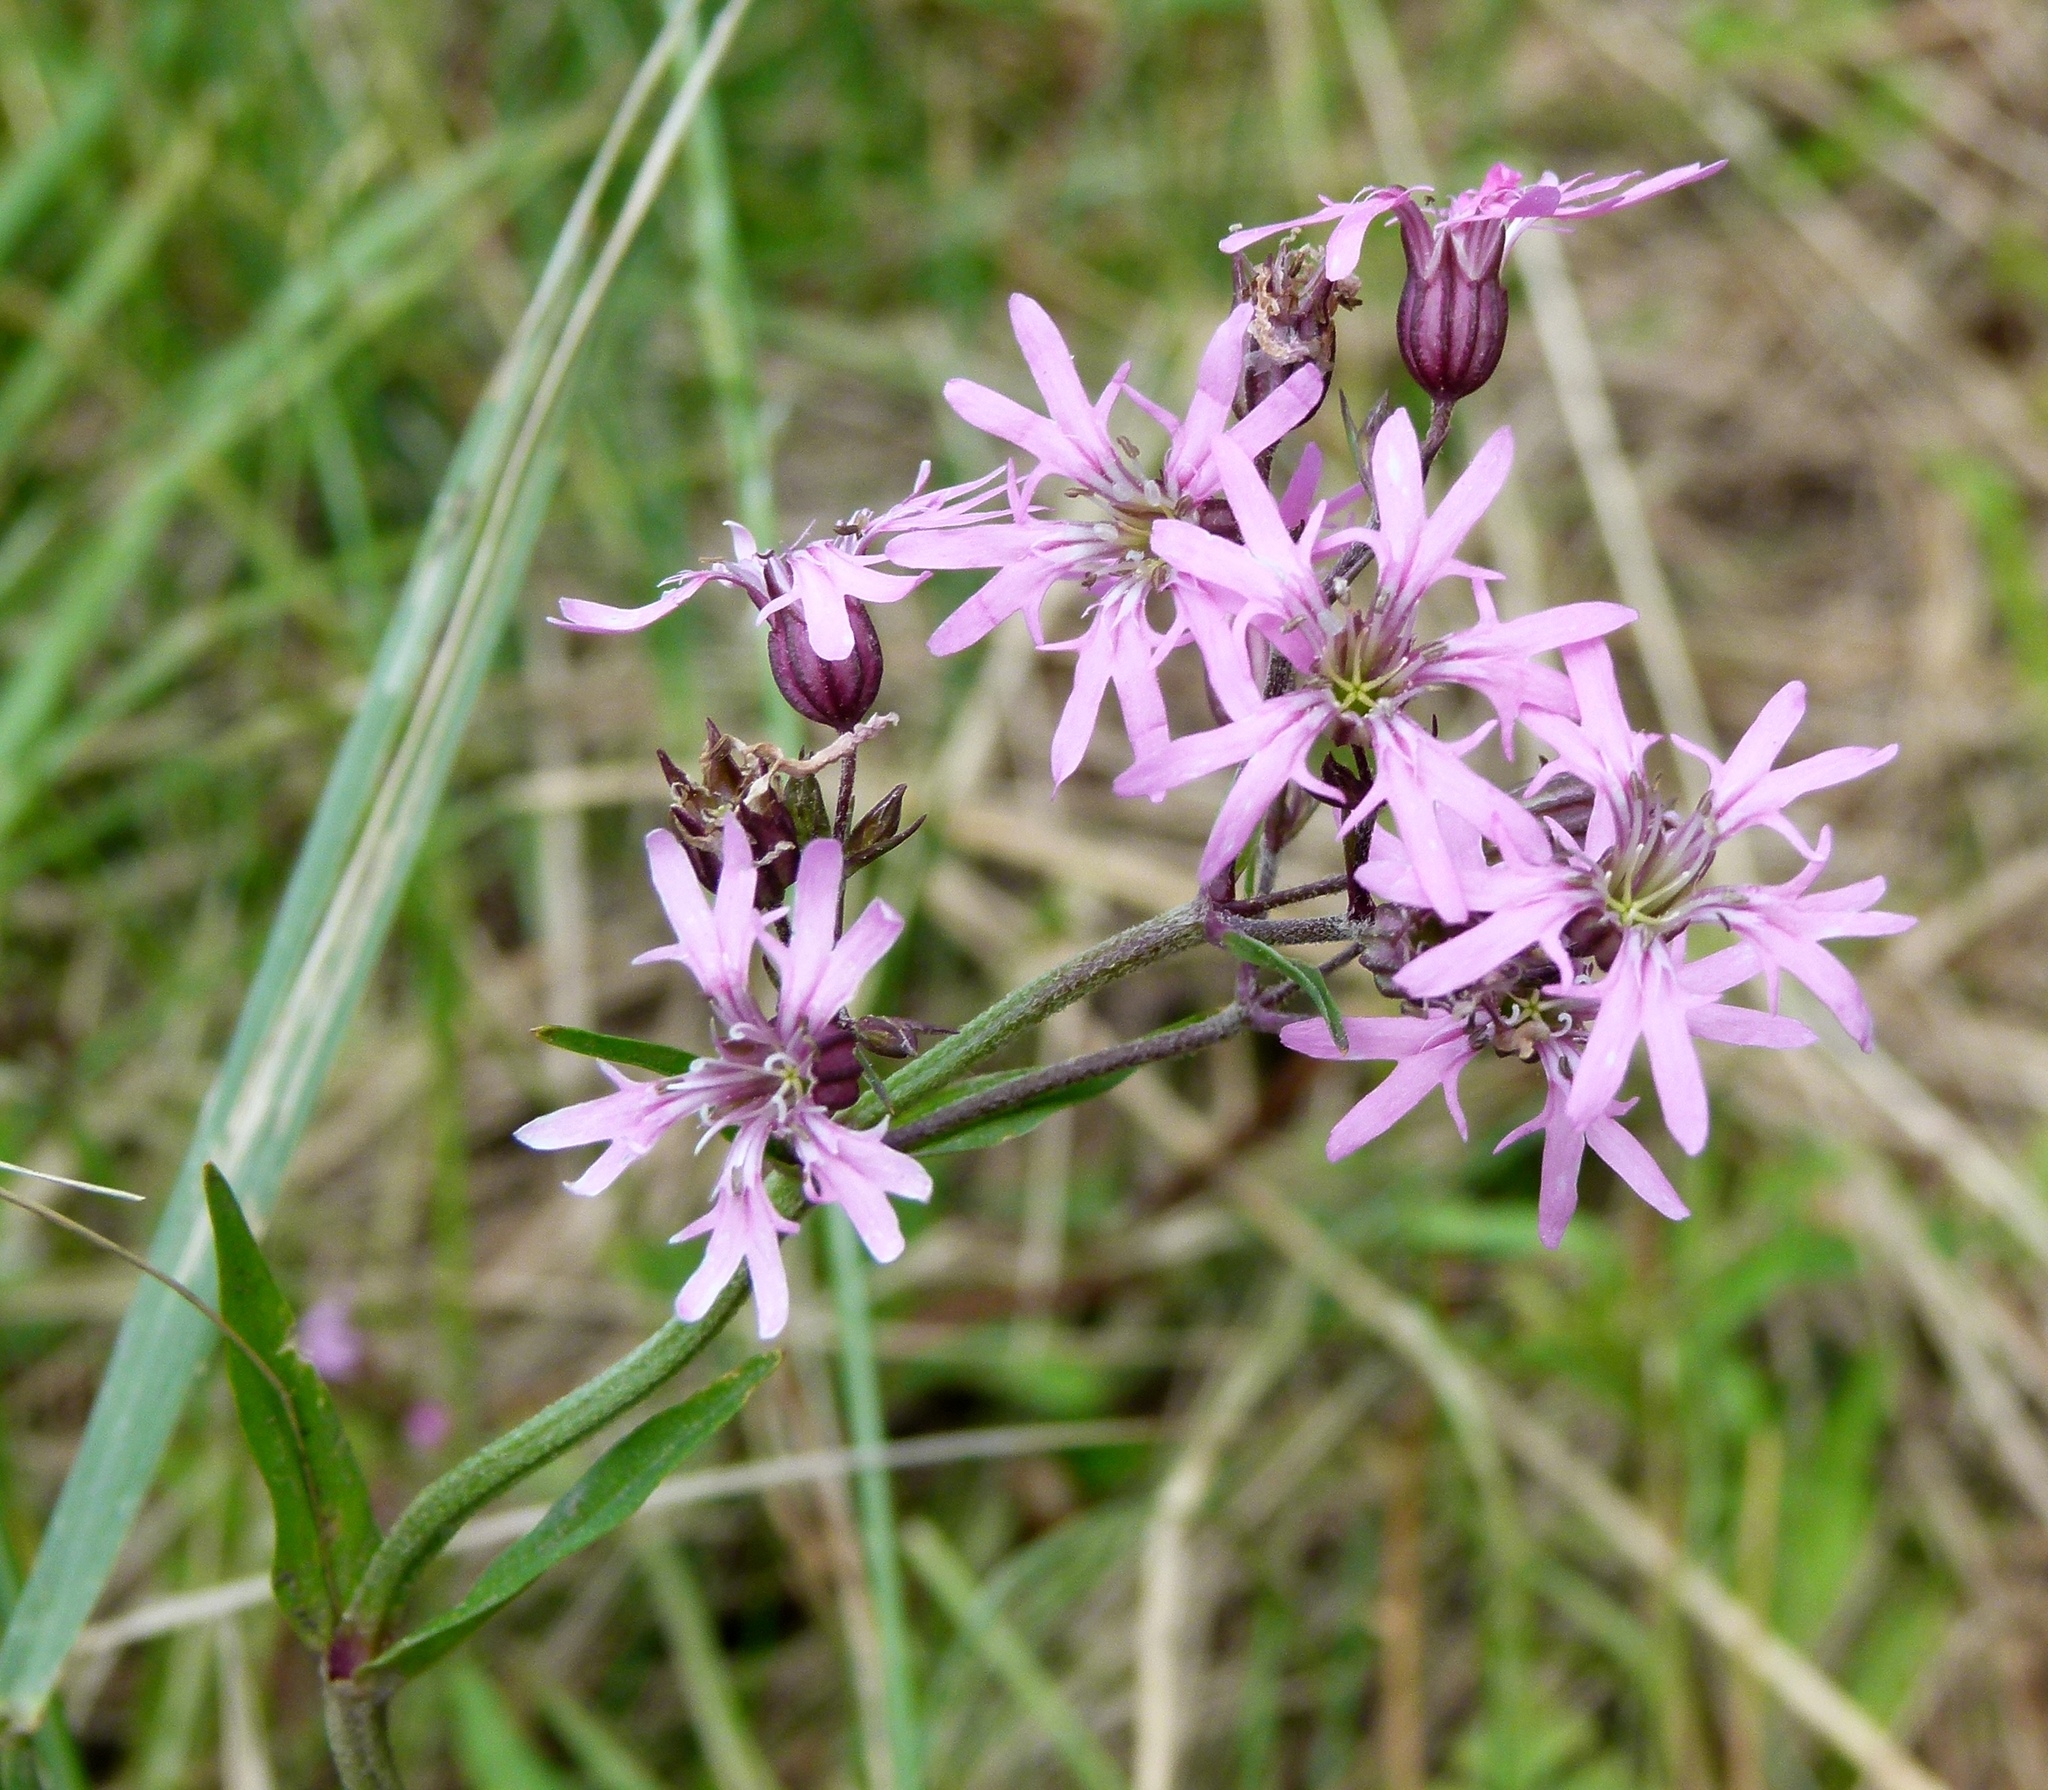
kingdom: Plantae
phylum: Tracheophyta
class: Magnoliopsida
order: Caryophyllales
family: Caryophyllaceae
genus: Silene
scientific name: Silene flos-cuculi
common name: Ragged-robin
